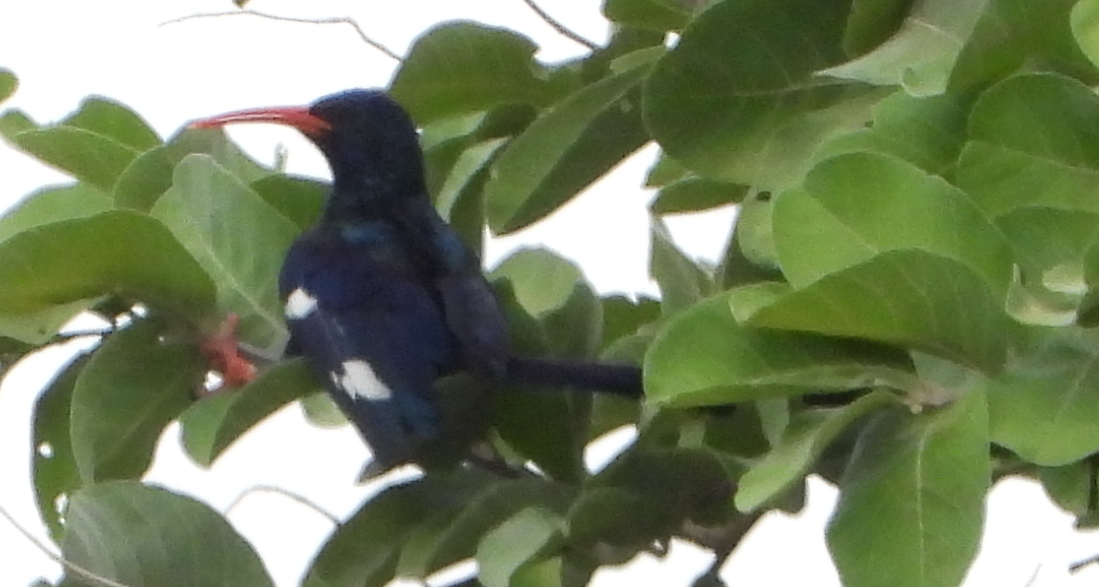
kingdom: Animalia
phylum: Chordata
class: Aves
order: Bucerotiformes
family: Phoeniculidae
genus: Phoeniculus
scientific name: Phoeniculus purpureus
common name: Green woodhoopoe
